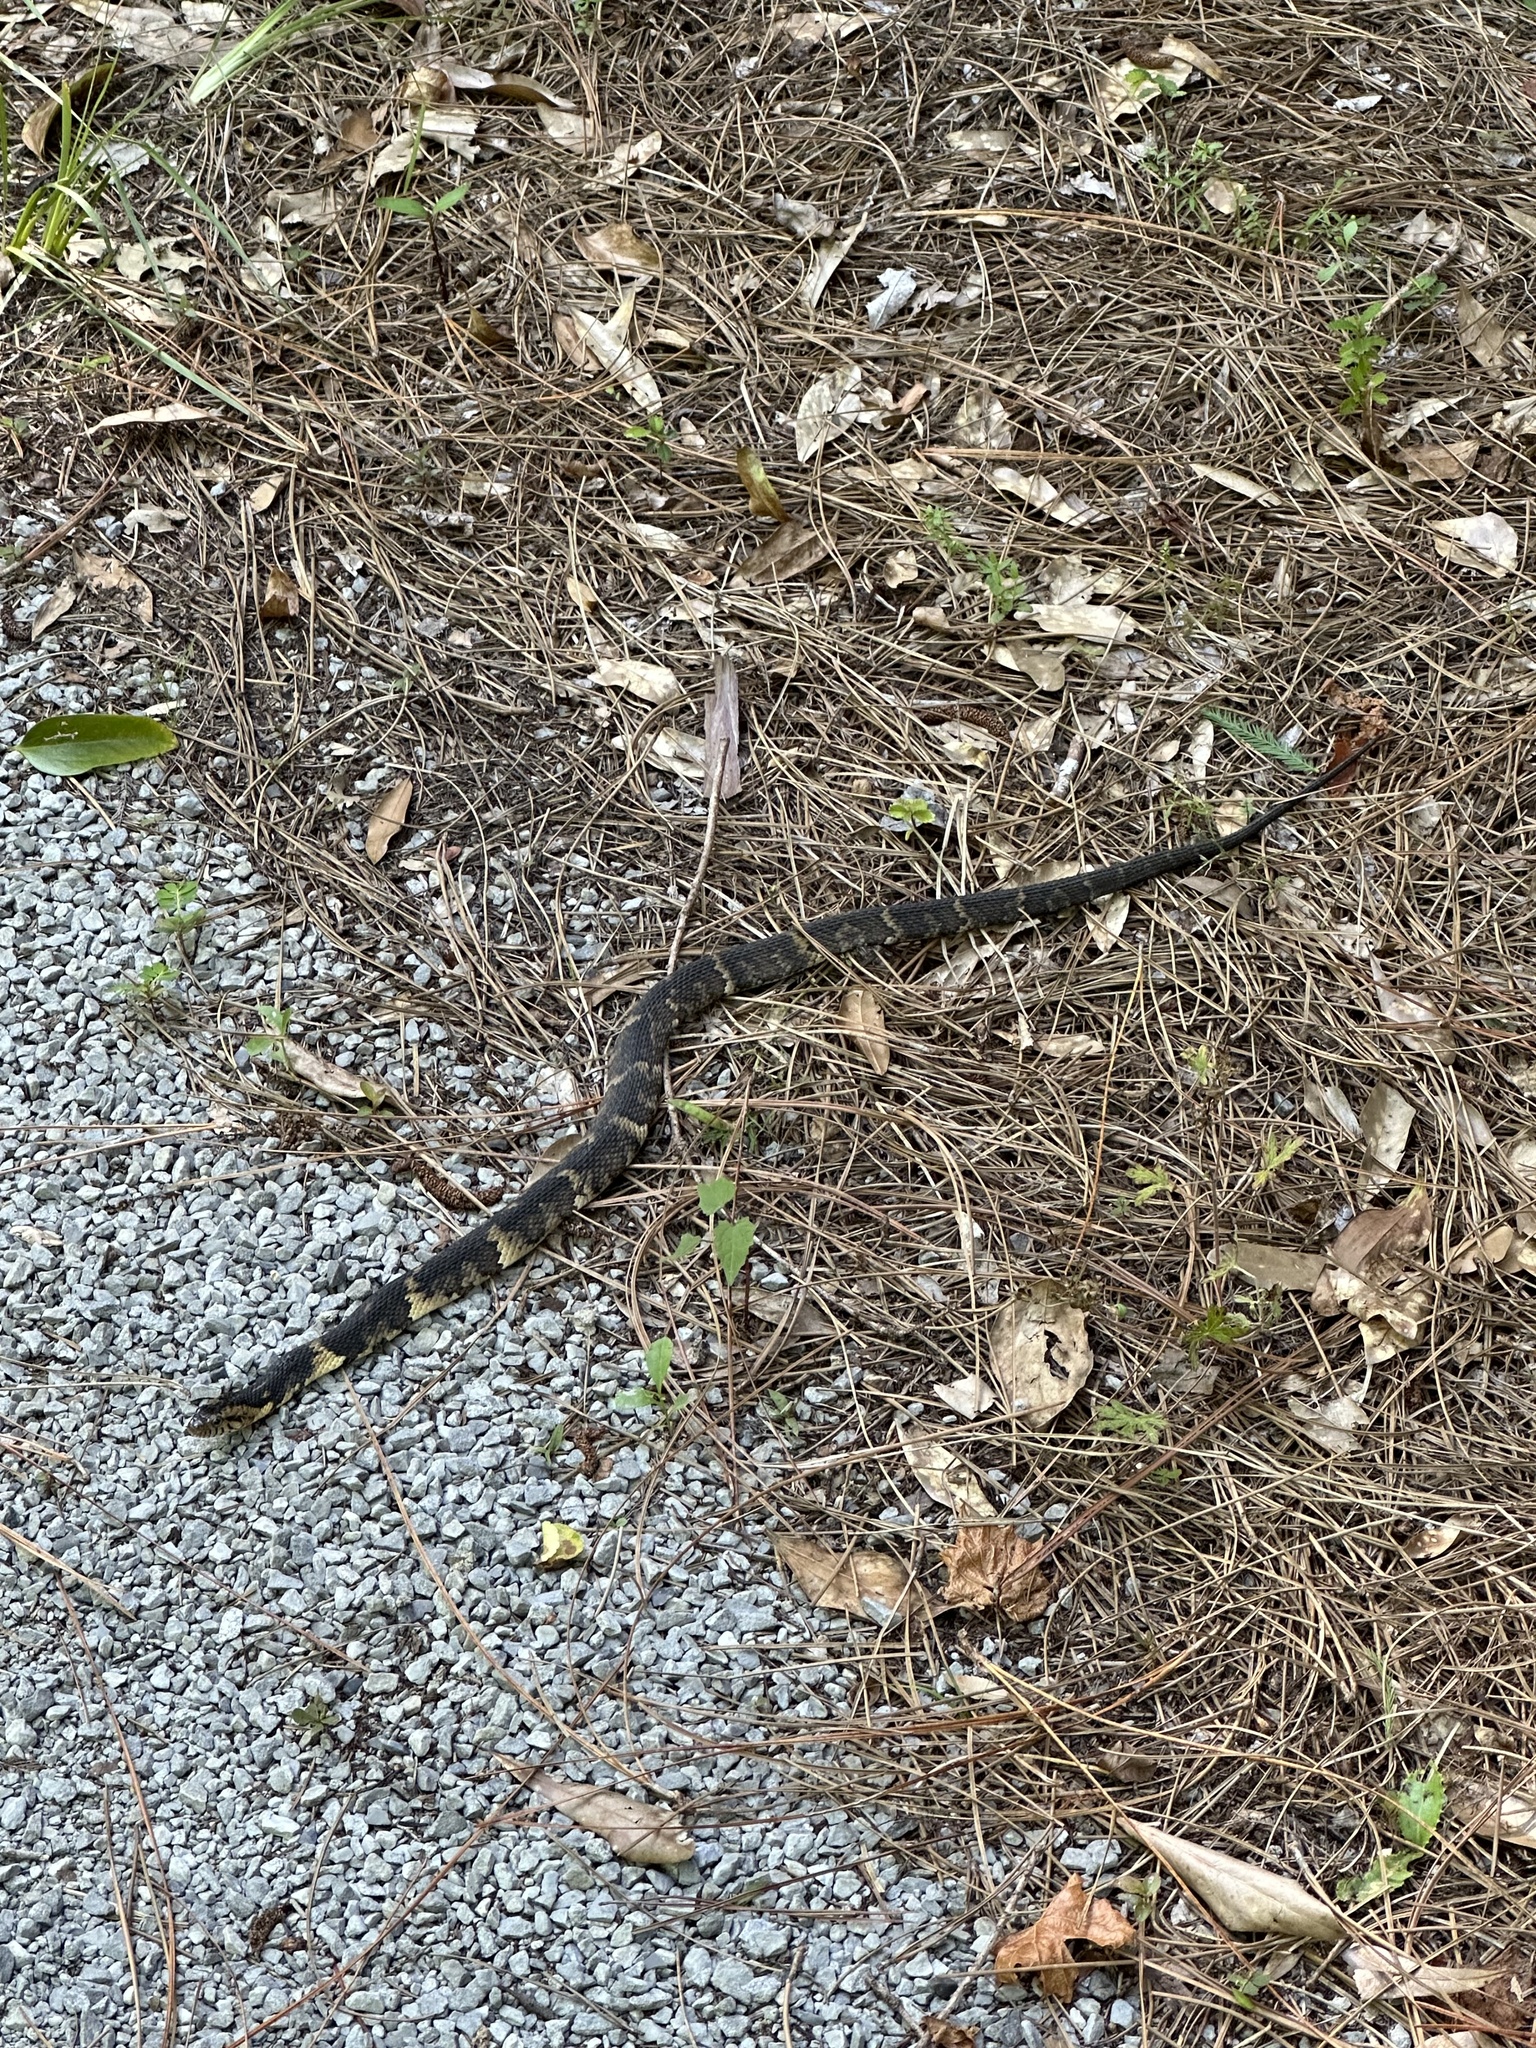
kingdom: Animalia
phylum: Chordata
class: Squamata
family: Colubridae
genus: Nerodia
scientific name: Nerodia fasciata
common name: Southern water snake
